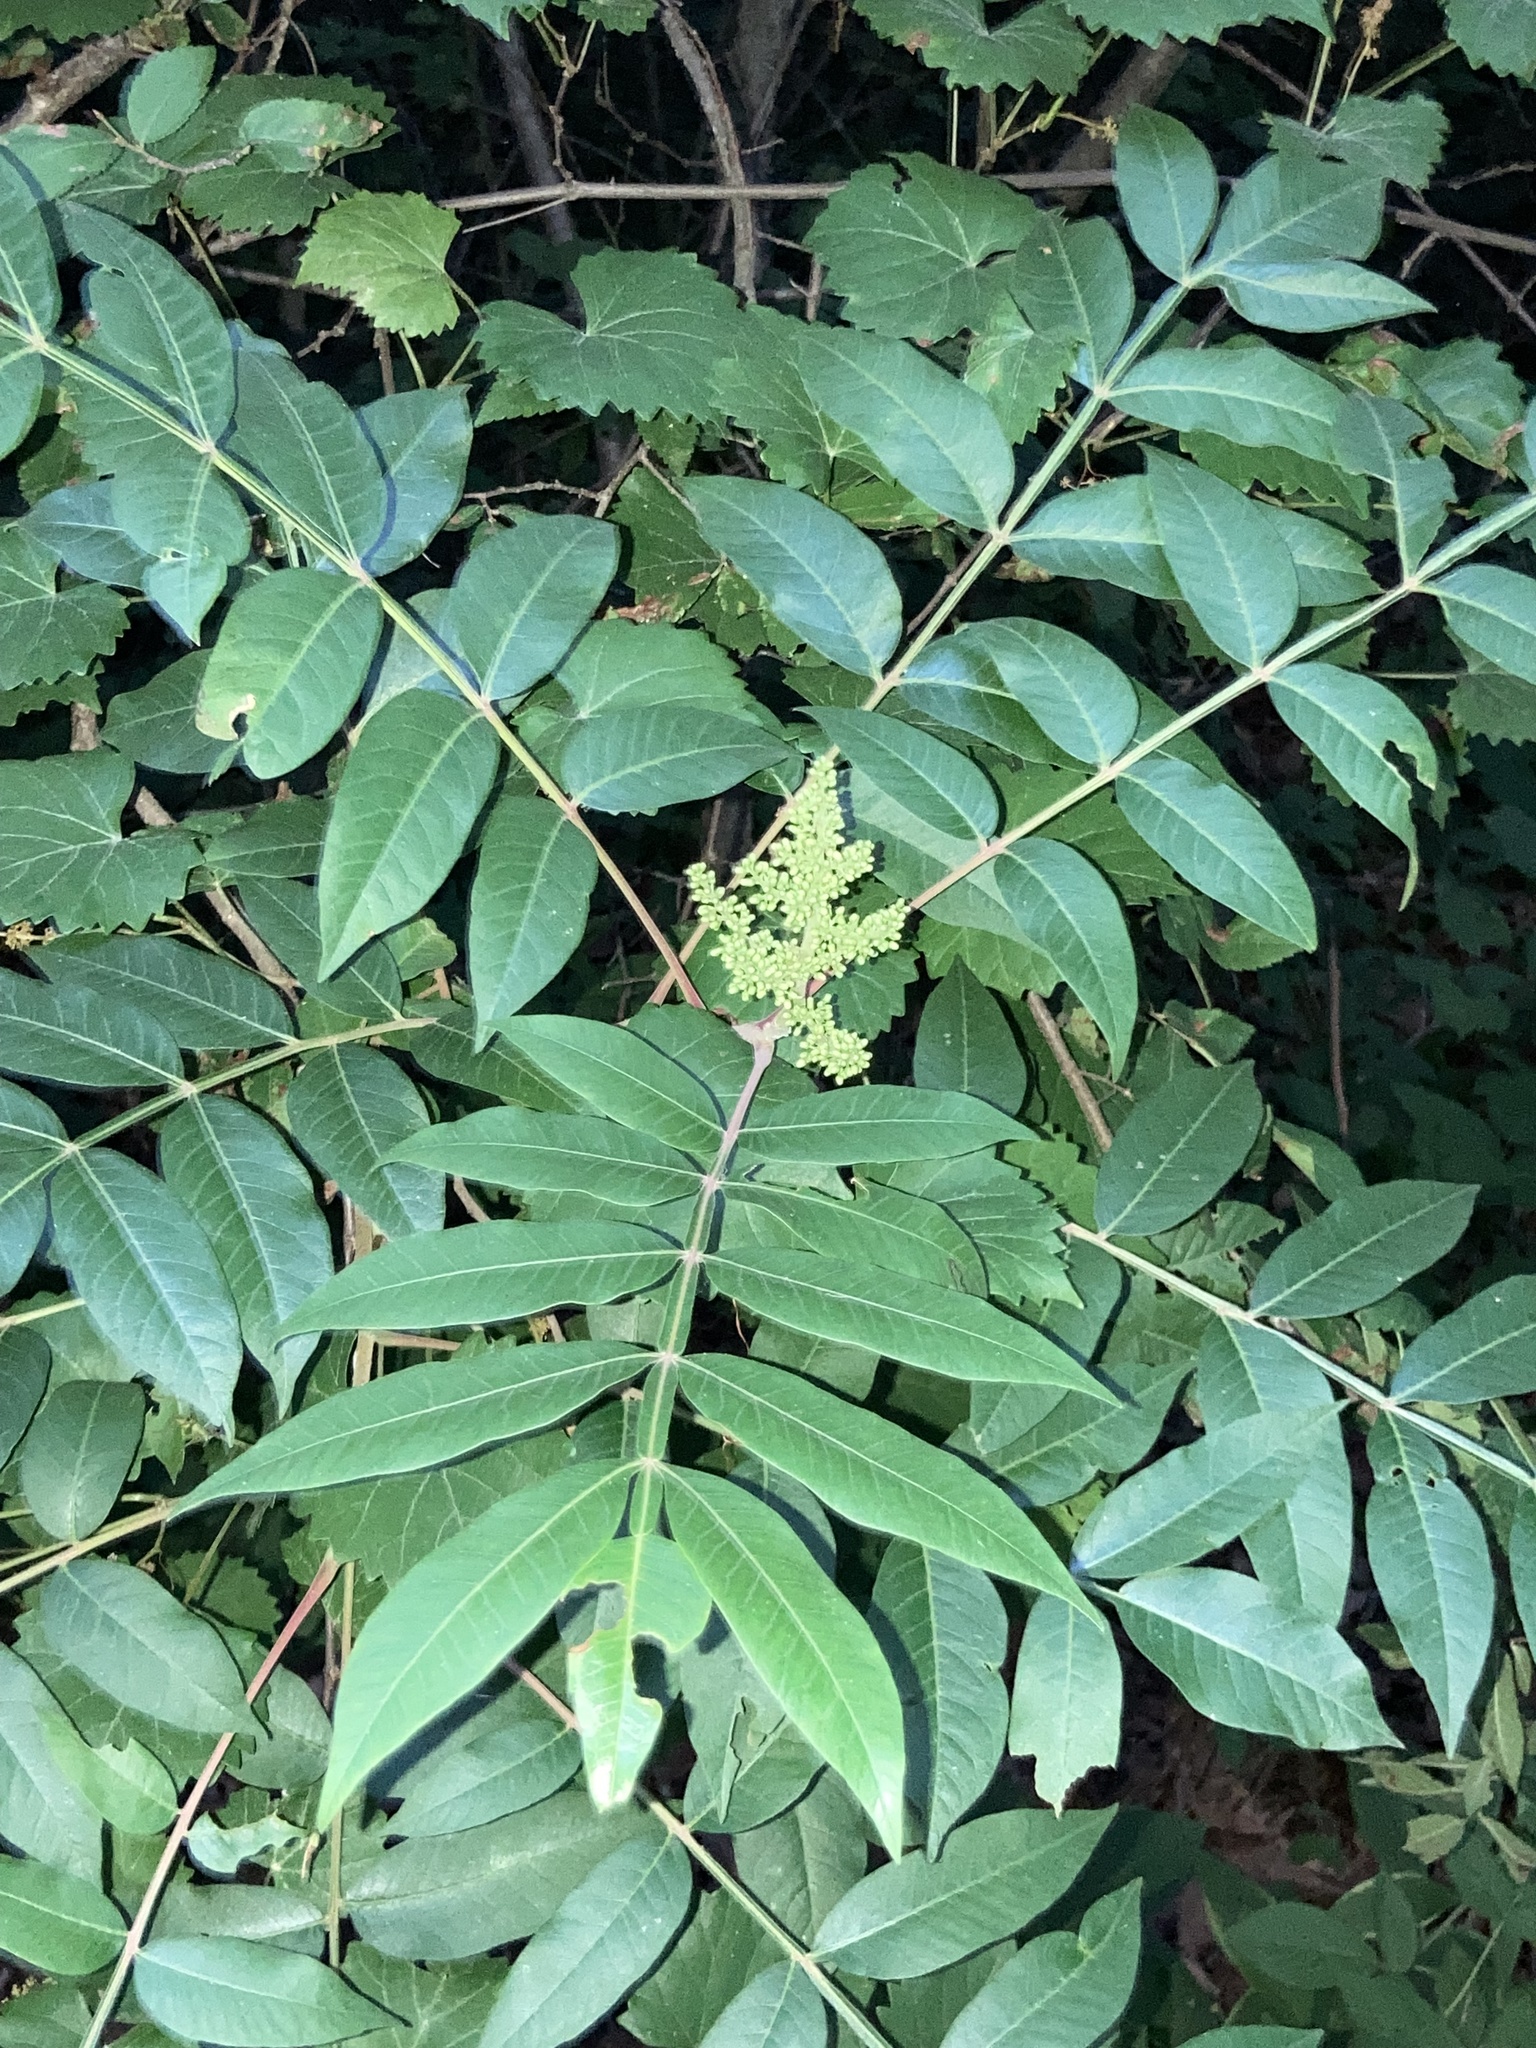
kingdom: Plantae
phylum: Tracheophyta
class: Magnoliopsida
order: Sapindales
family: Anacardiaceae
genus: Rhus
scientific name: Rhus copallina
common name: Shining sumac
